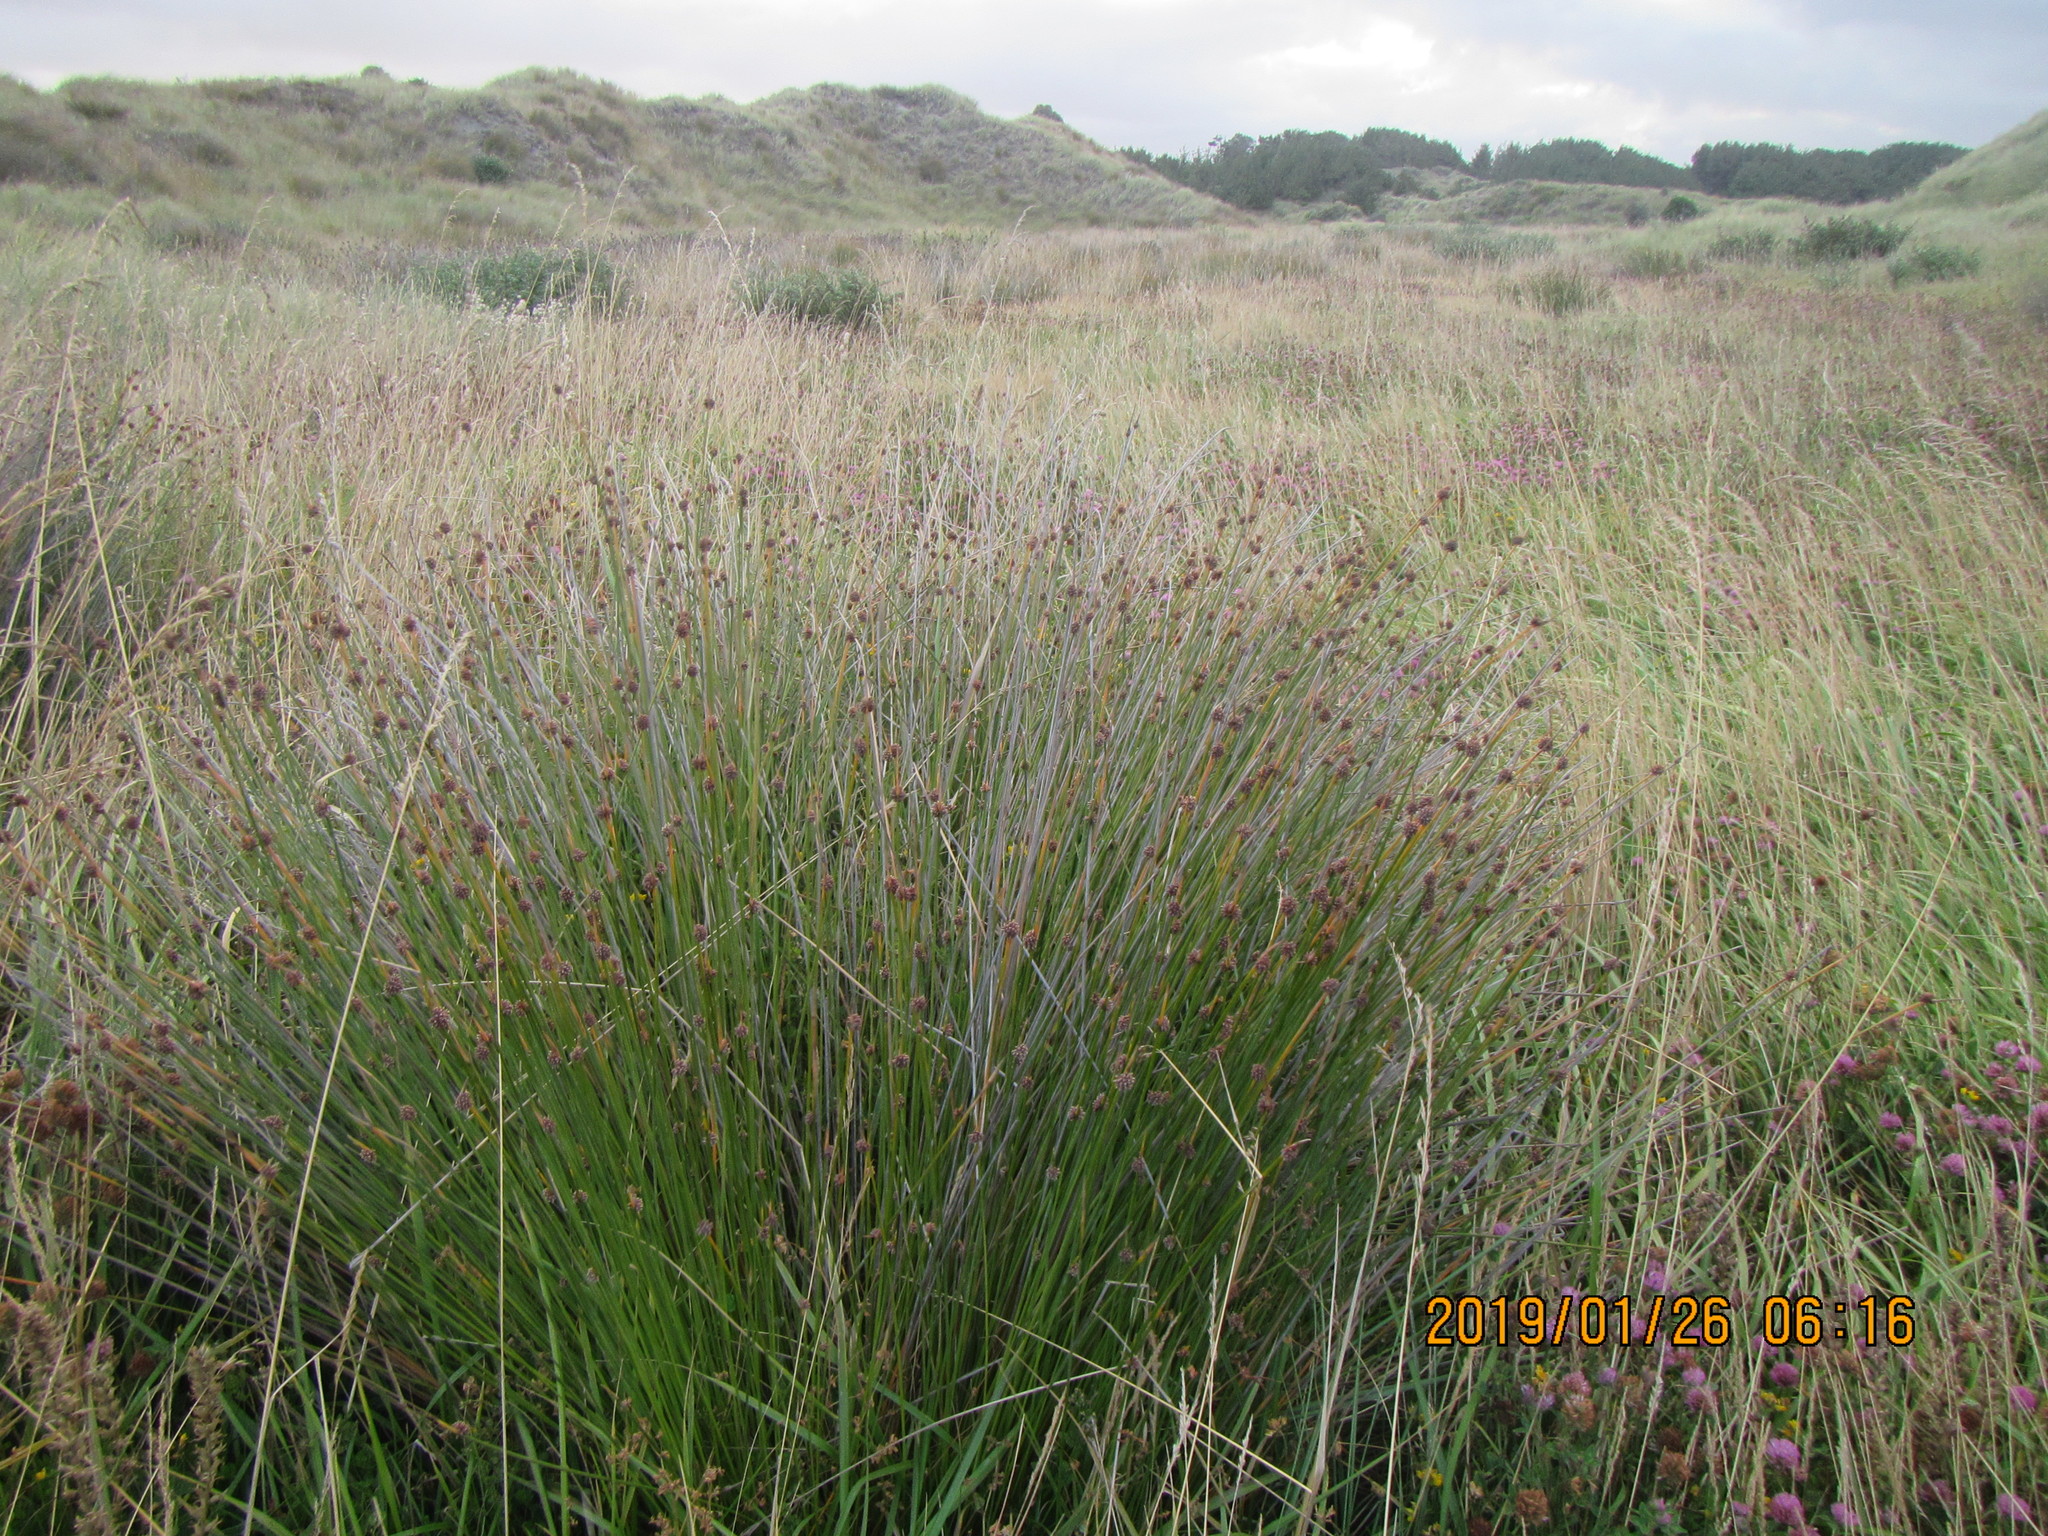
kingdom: Plantae
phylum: Tracheophyta
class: Liliopsida
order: Poales
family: Cyperaceae
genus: Ficinia
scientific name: Ficinia nodosa
